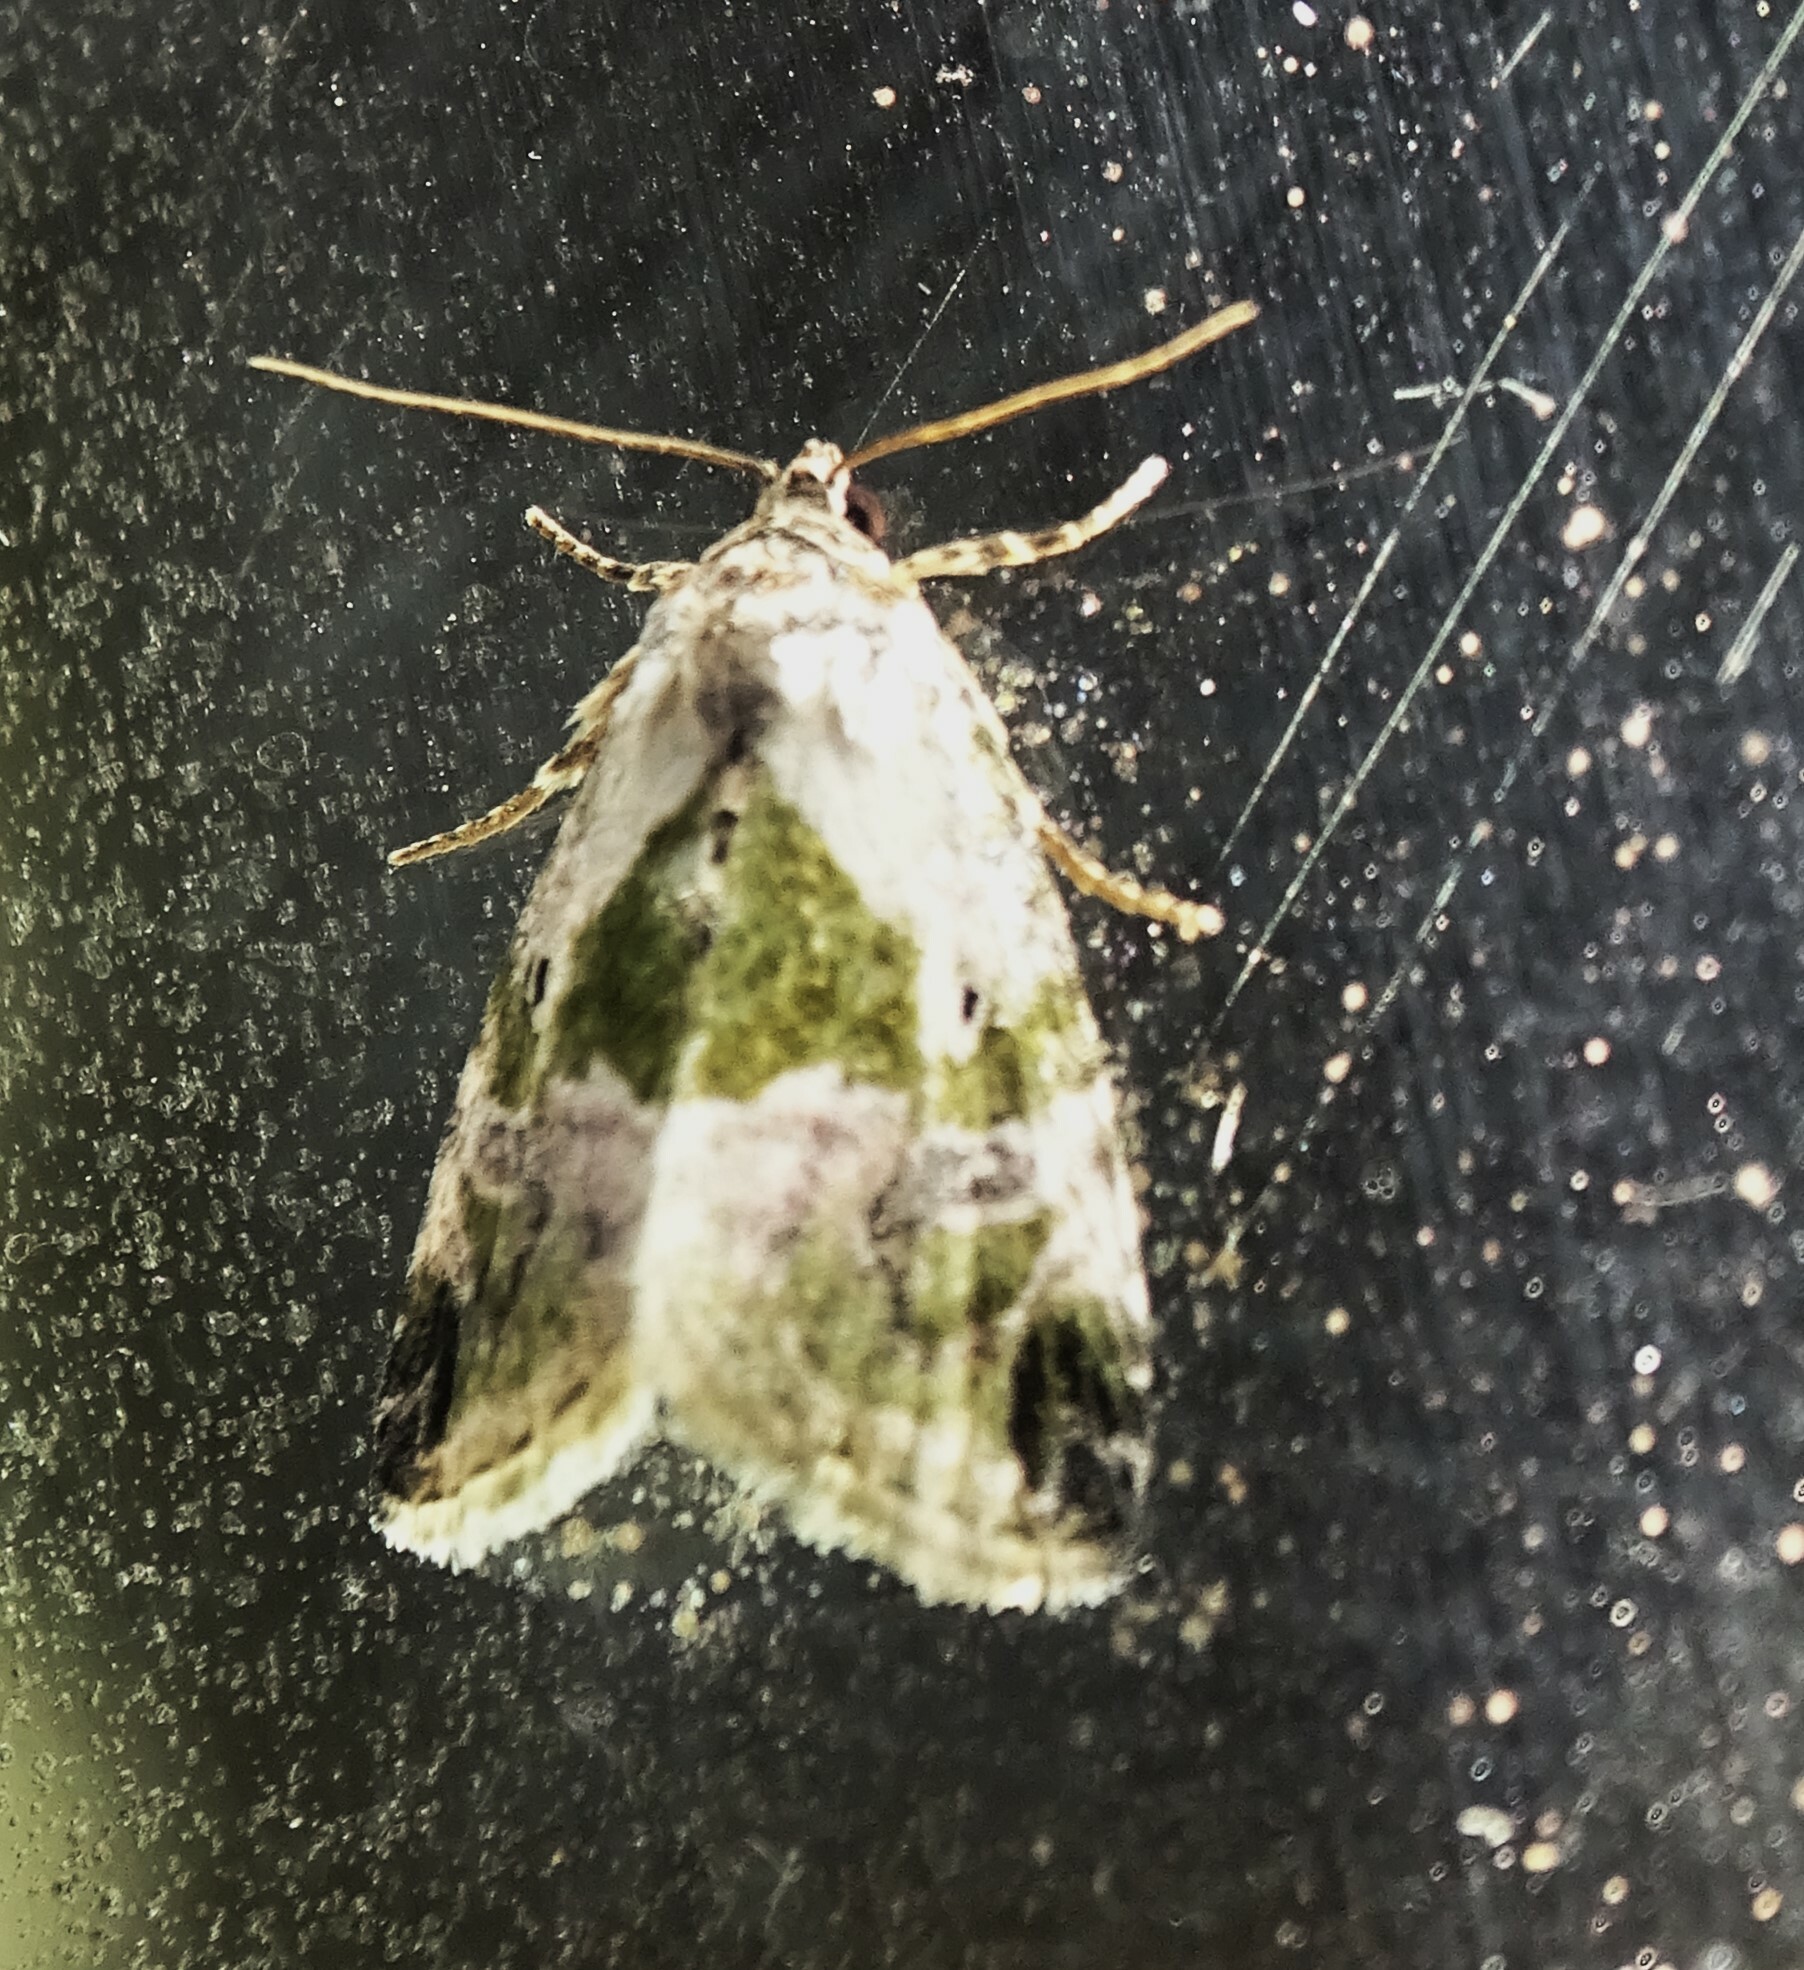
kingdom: Animalia
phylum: Arthropoda
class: Insecta
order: Lepidoptera
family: Noctuidae
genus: Maliattha
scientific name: Maliattha synochitis
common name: Black-dotted glyph
